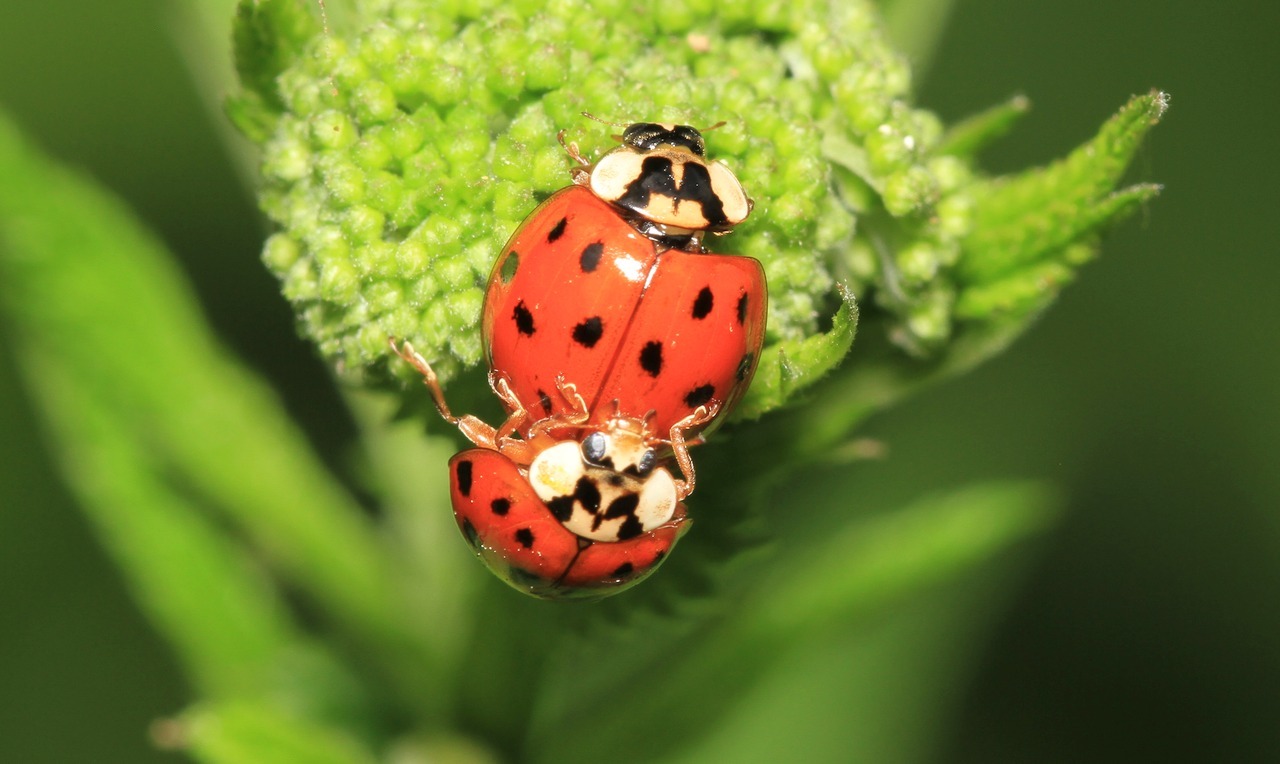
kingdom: Animalia
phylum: Arthropoda
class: Insecta
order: Coleoptera
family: Coccinellidae
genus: Harmonia
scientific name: Harmonia axyridis
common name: Harlequin ladybird
